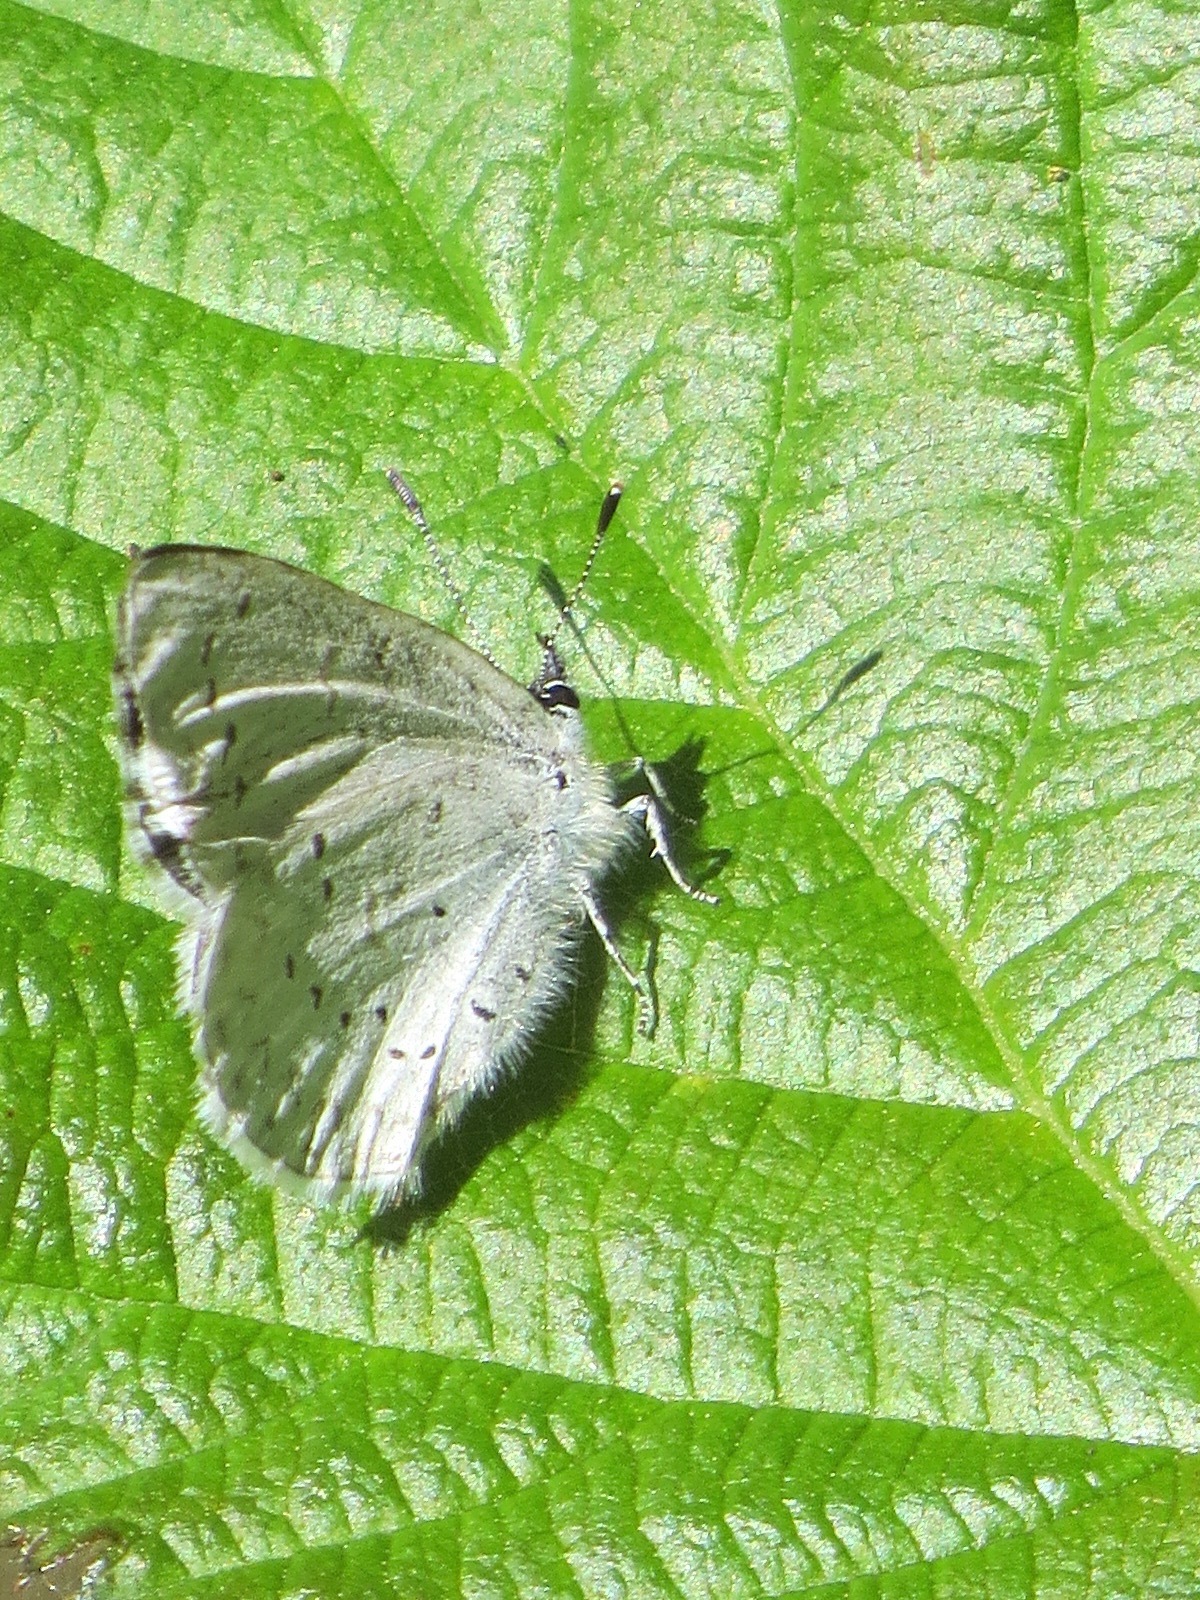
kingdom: Animalia
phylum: Arthropoda
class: Insecta
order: Lepidoptera
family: Lycaenidae
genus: Celastrina
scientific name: Celastrina ladon
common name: Spring azure
